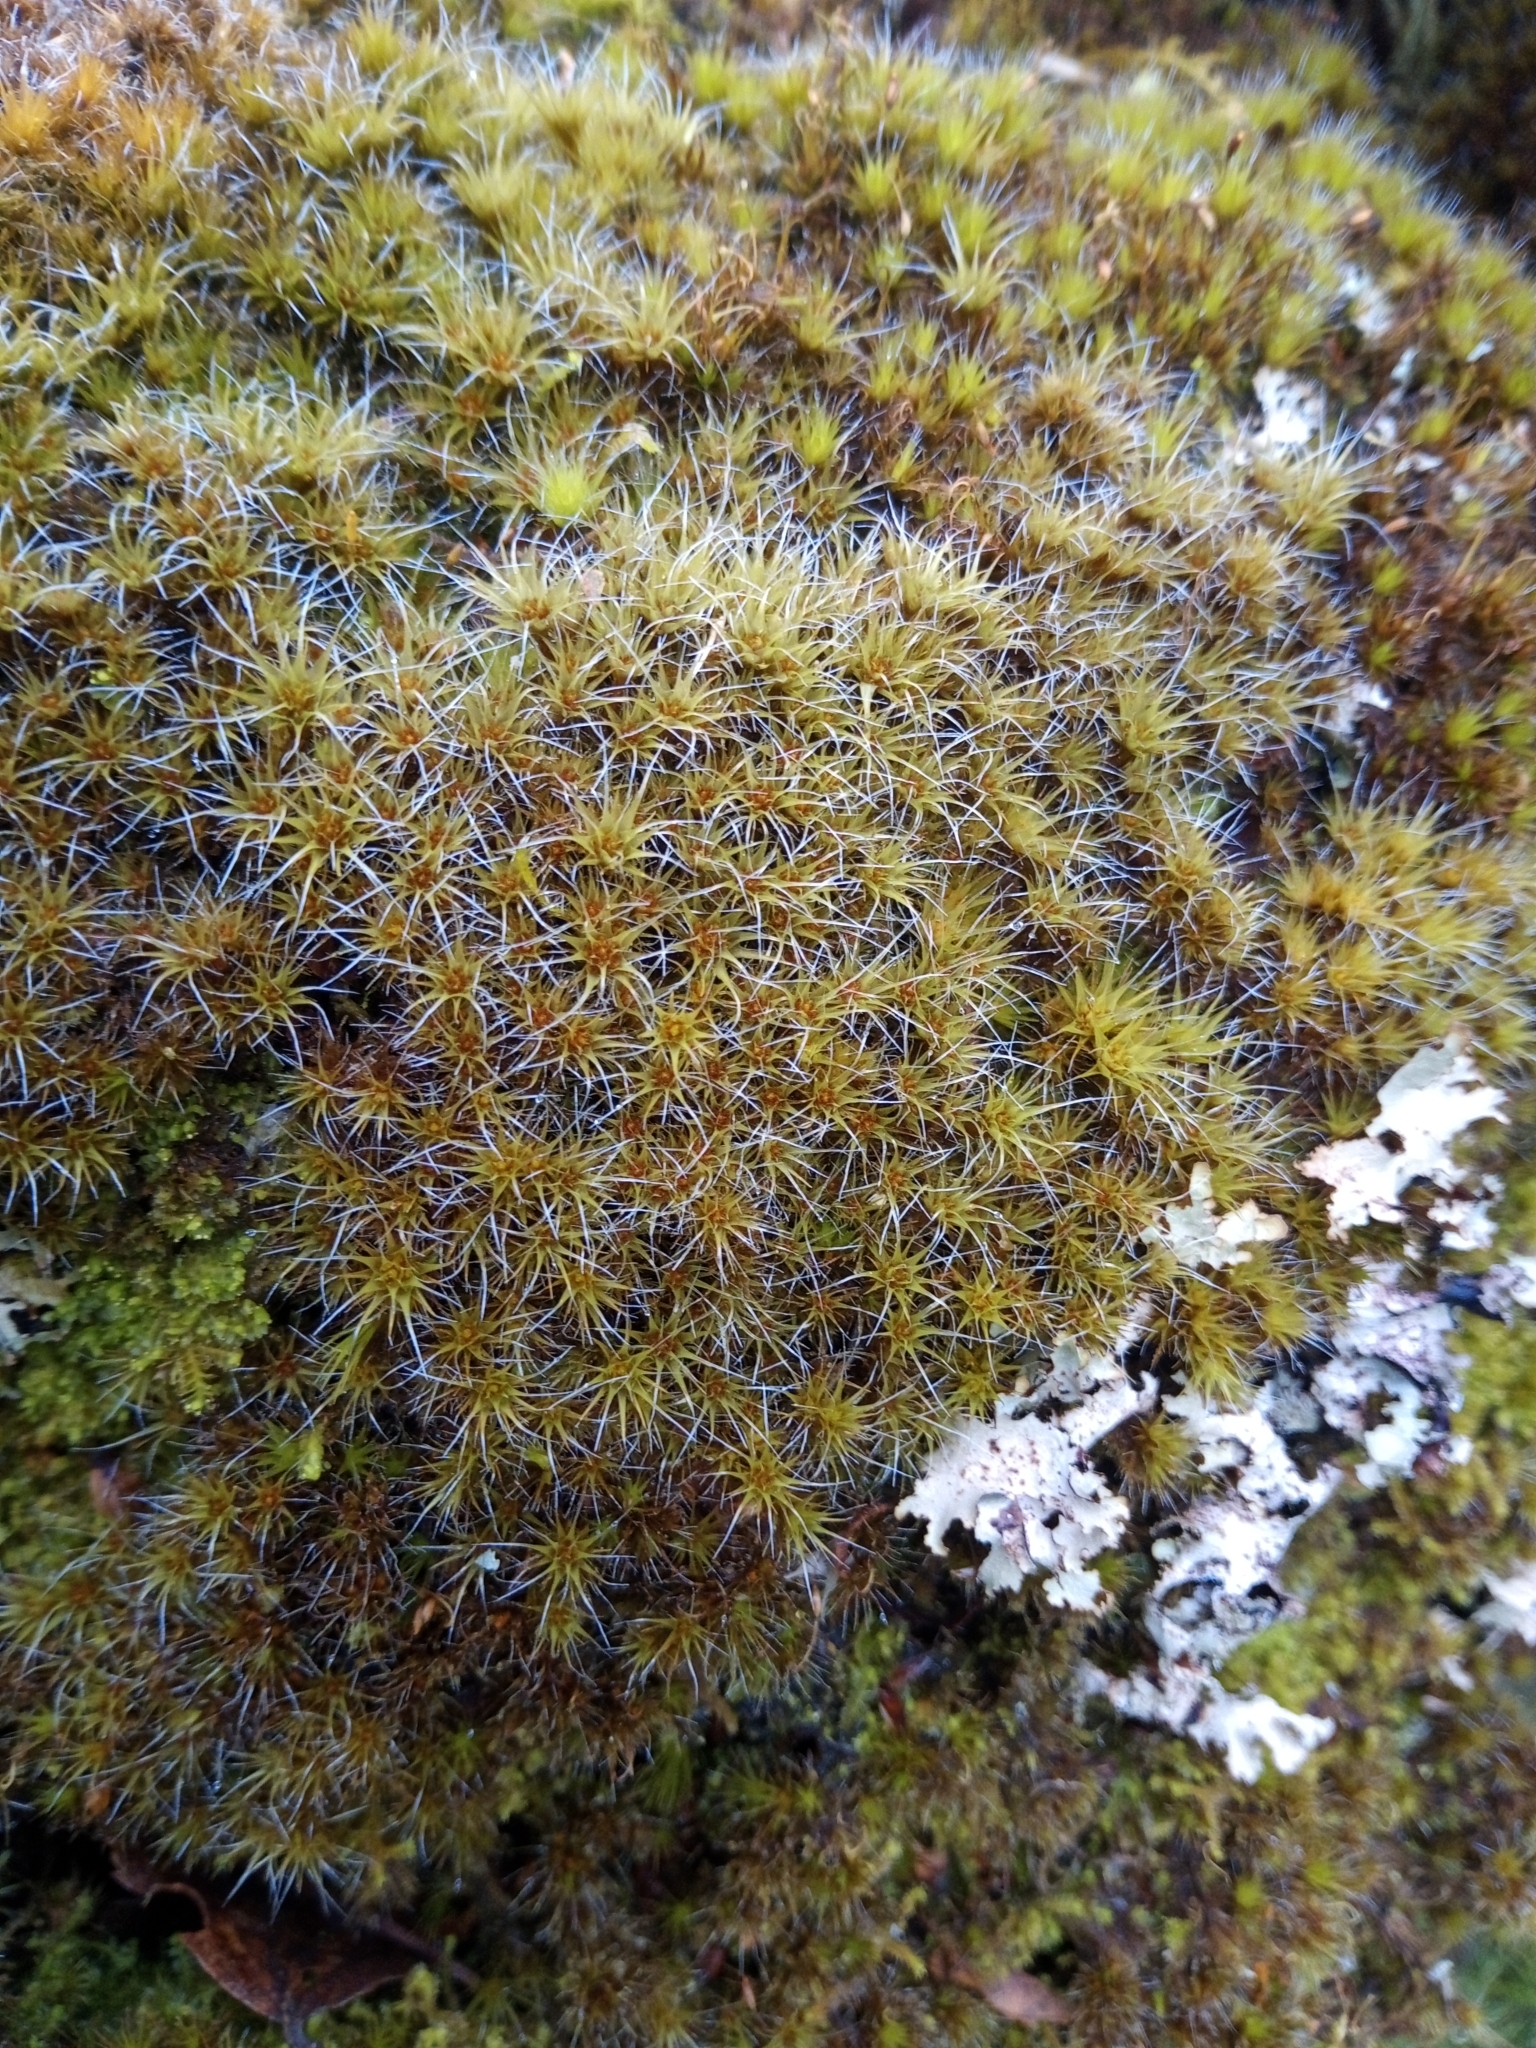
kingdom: Plantae
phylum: Bryophyta
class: Bryopsida
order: Dicranales
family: Leucobryaceae
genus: Campylopus
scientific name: Campylopus introflexus
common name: Heath star moss
